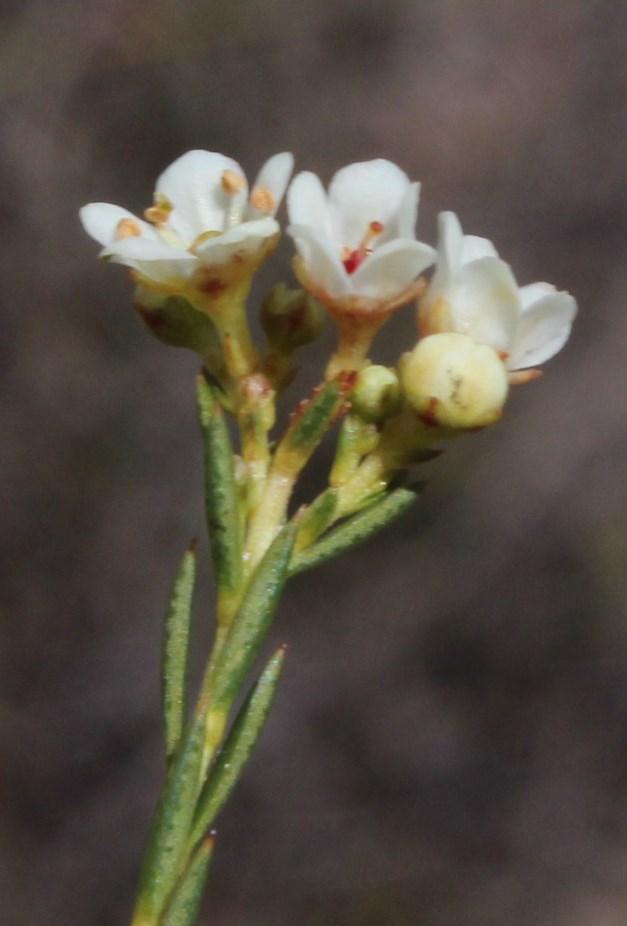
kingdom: Plantae
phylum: Tracheophyta
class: Magnoliopsida
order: Sapindales
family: Rutaceae
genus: Diosma
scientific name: Diosma hirsuta
